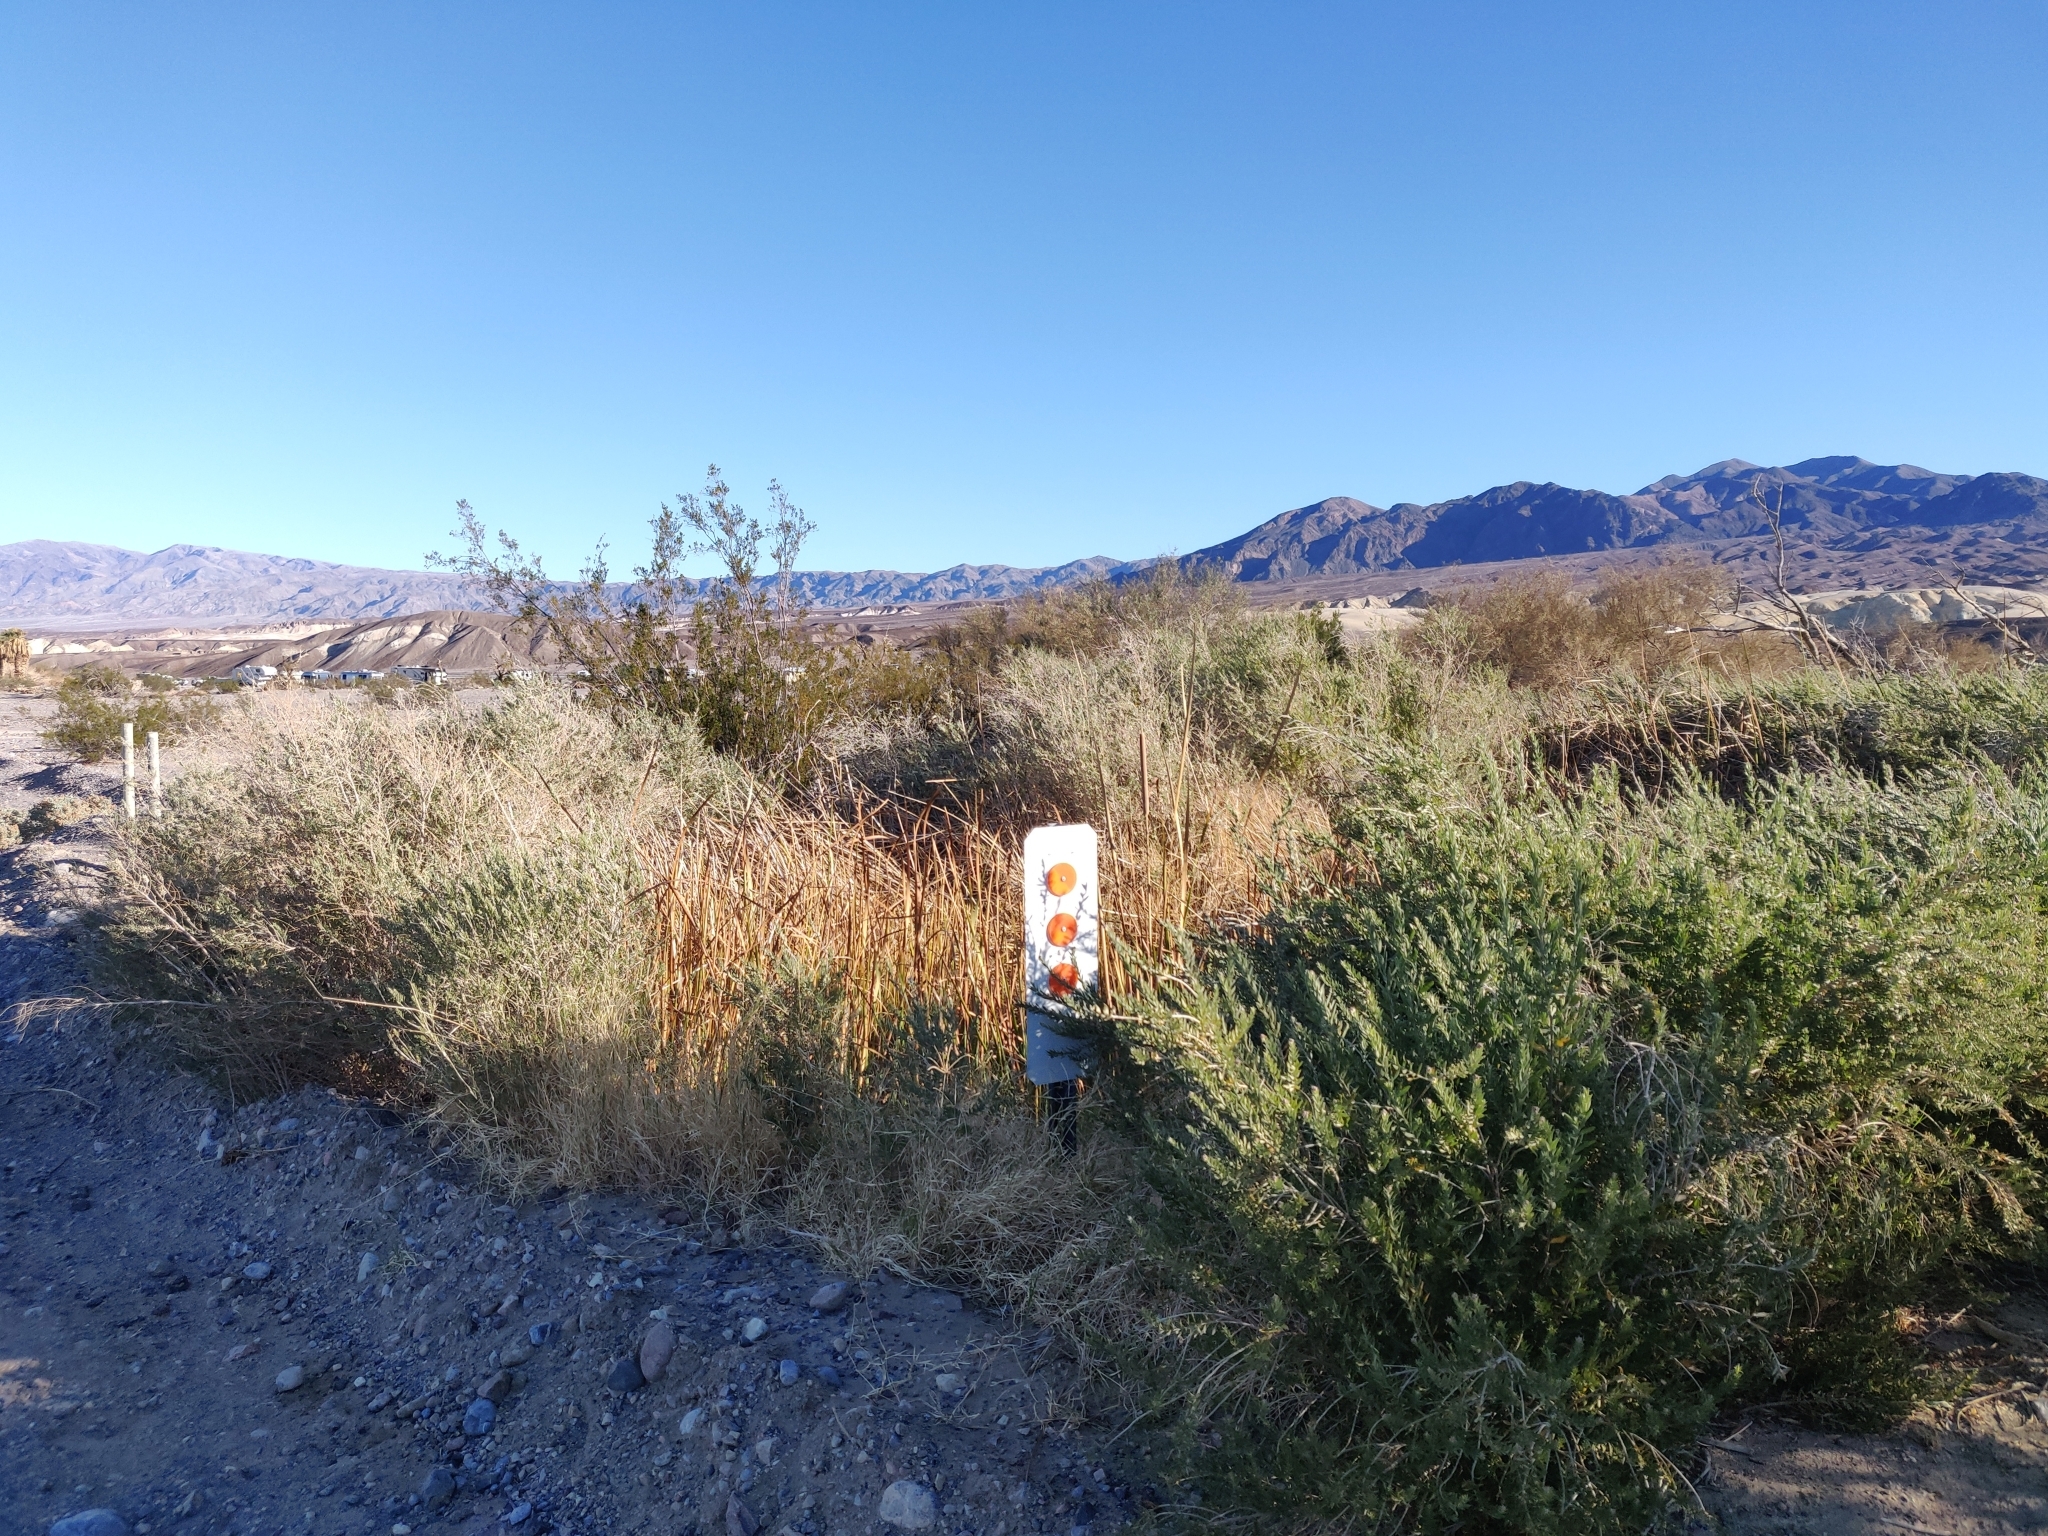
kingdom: Plantae
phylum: Tracheophyta
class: Magnoliopsida
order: Asterales
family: Asteraceae
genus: Pluchea
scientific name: Pluchea sericea
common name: Arrow-weed
